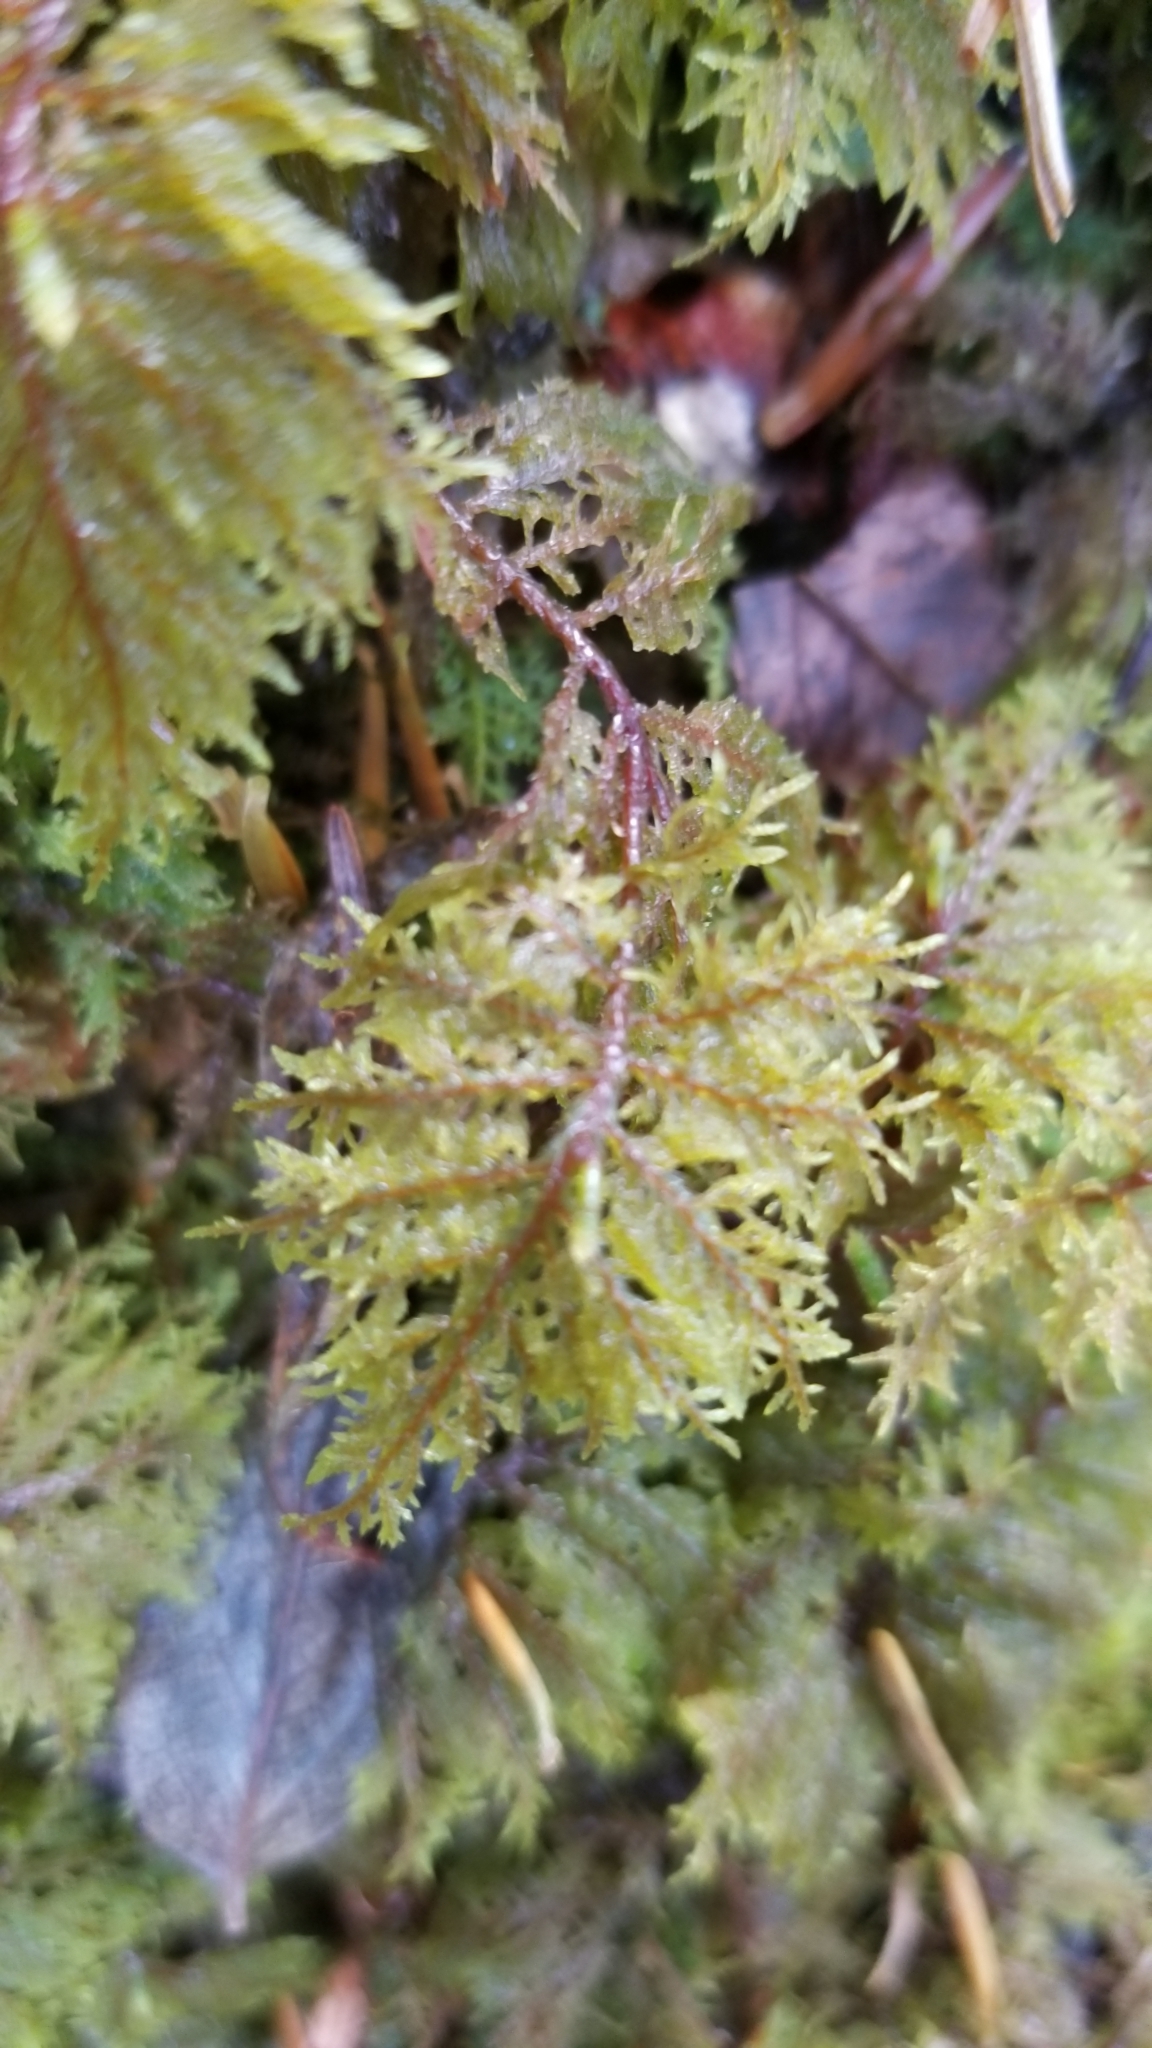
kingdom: Plantae
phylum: Bryophyta
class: Bryopsida
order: Hypnales
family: Hylocomiaceae
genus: Hylocomium
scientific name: Hylocomium splendens
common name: Stairstep moss
